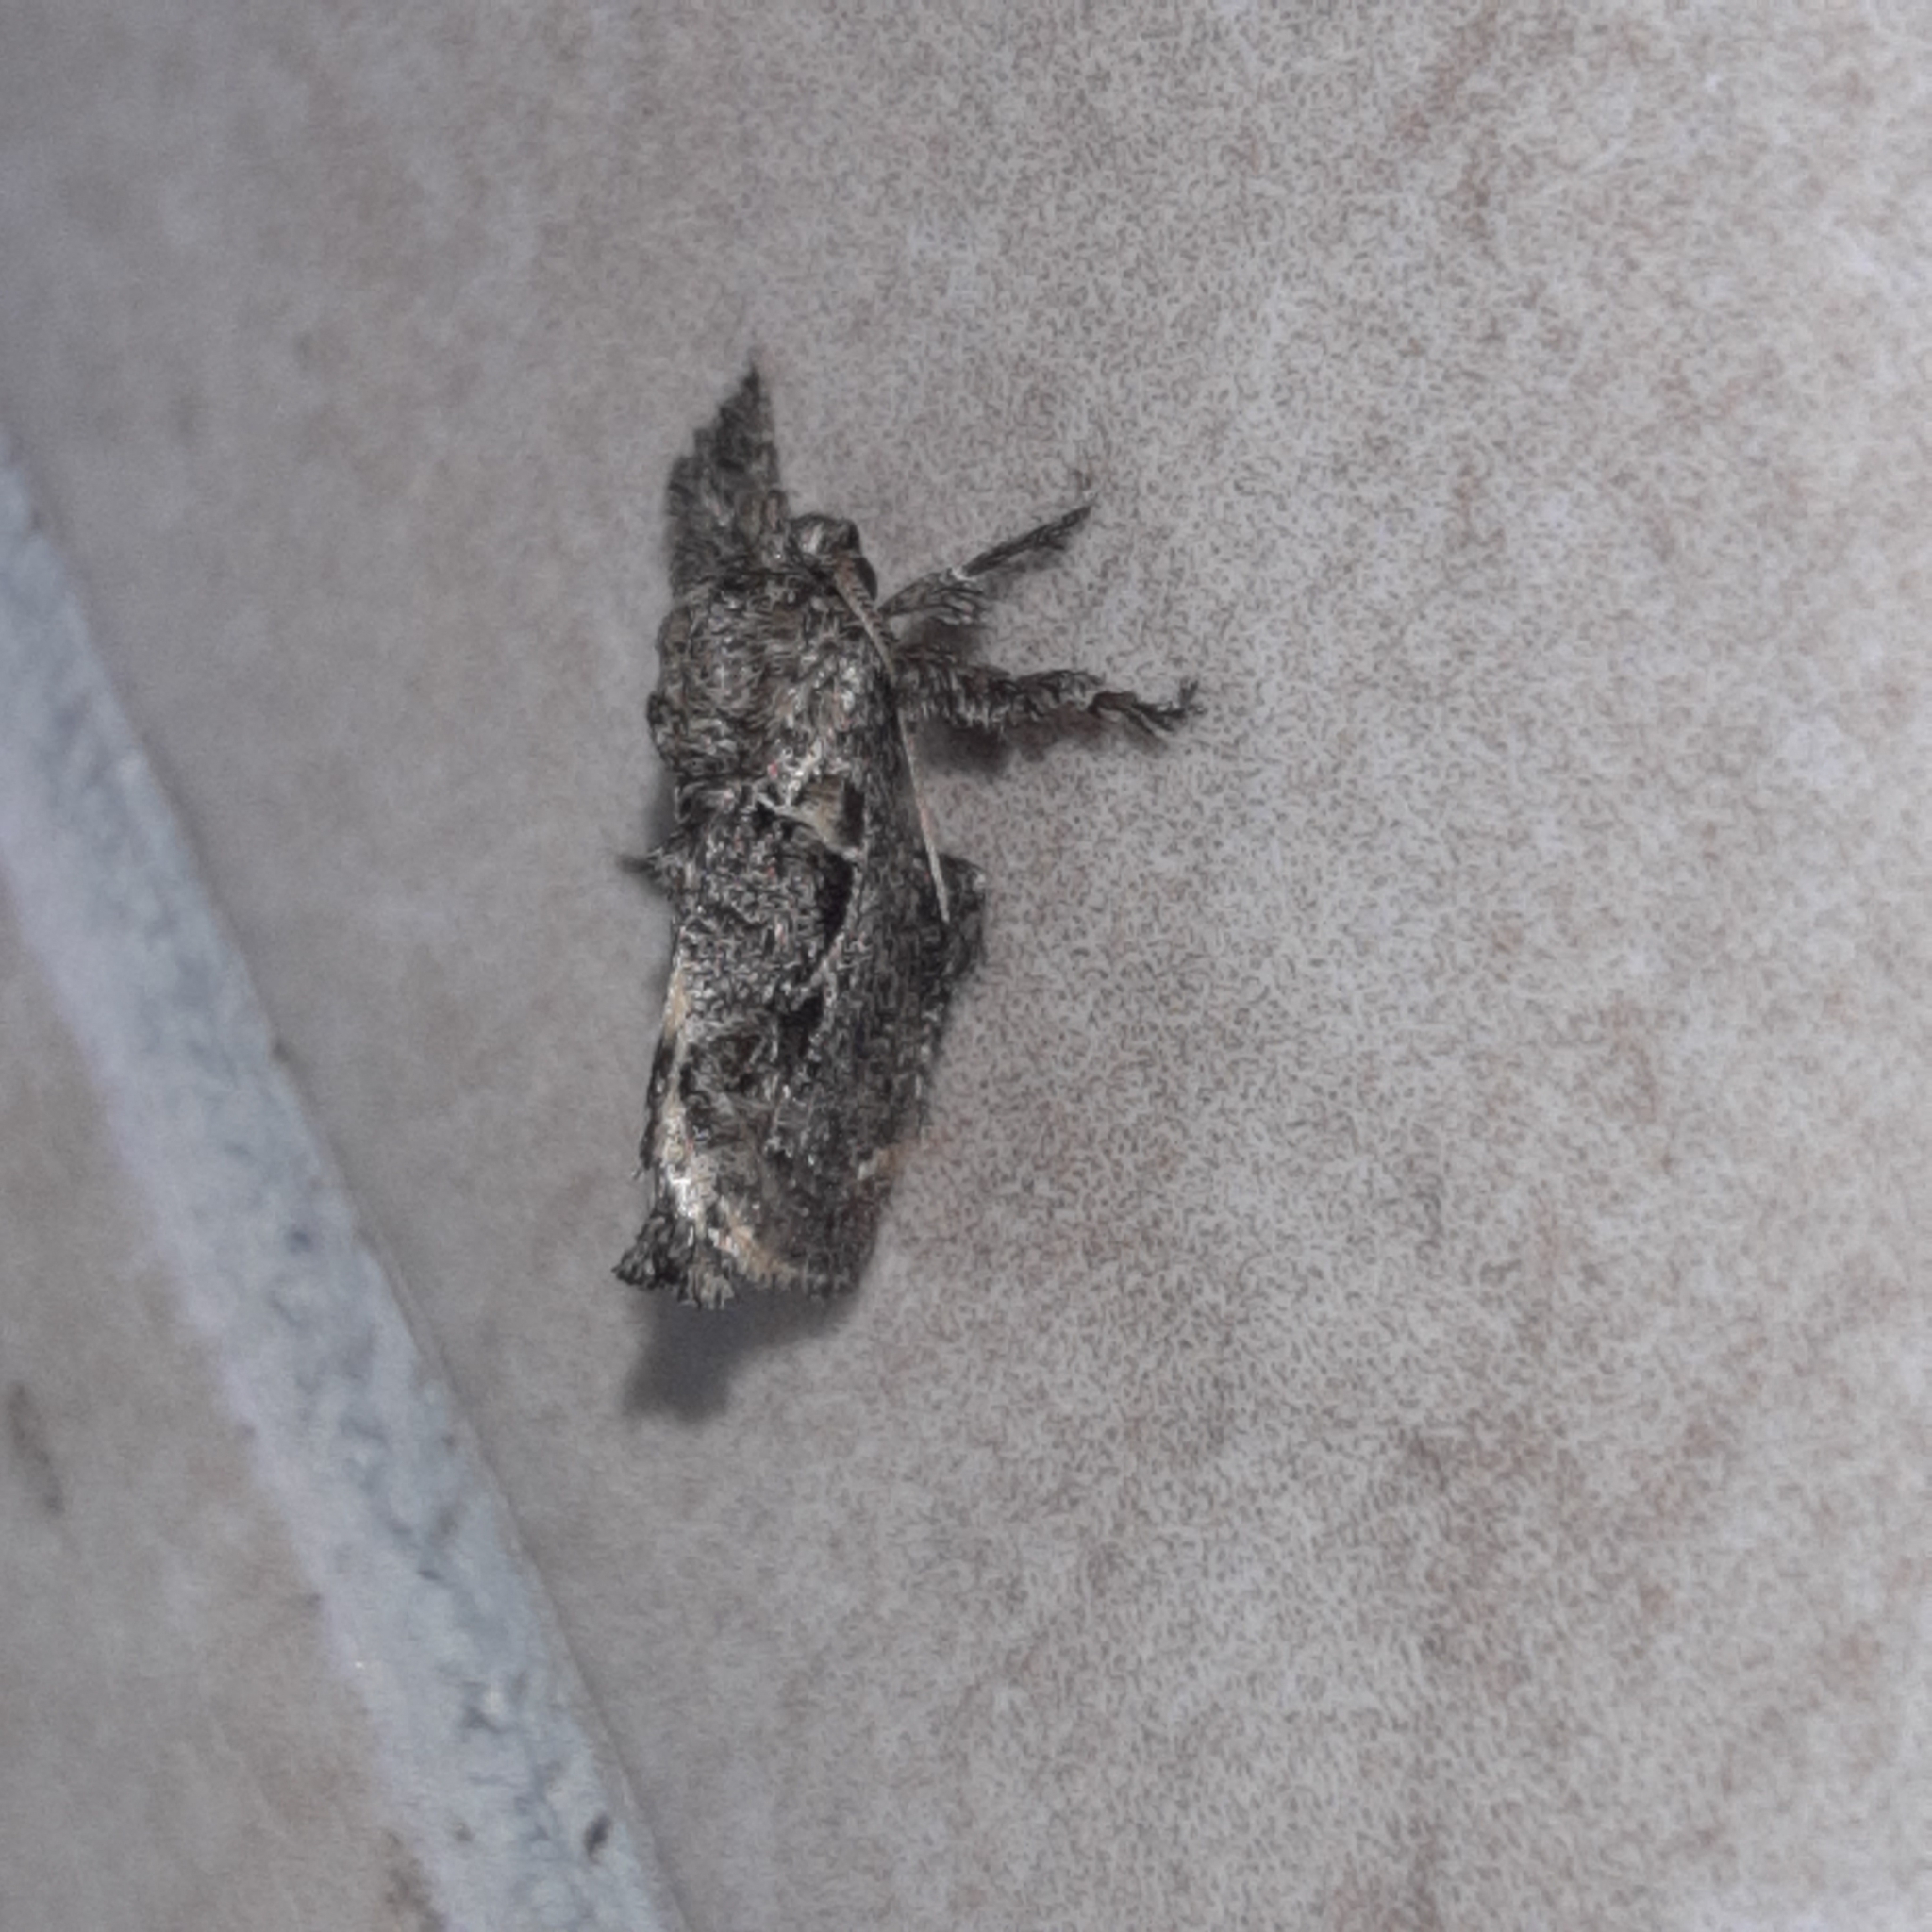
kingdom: Animalia
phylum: Arthropoda
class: Insecta
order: Lepidoptera
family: Limacodidae
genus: Euclea
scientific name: Euclea plugma
